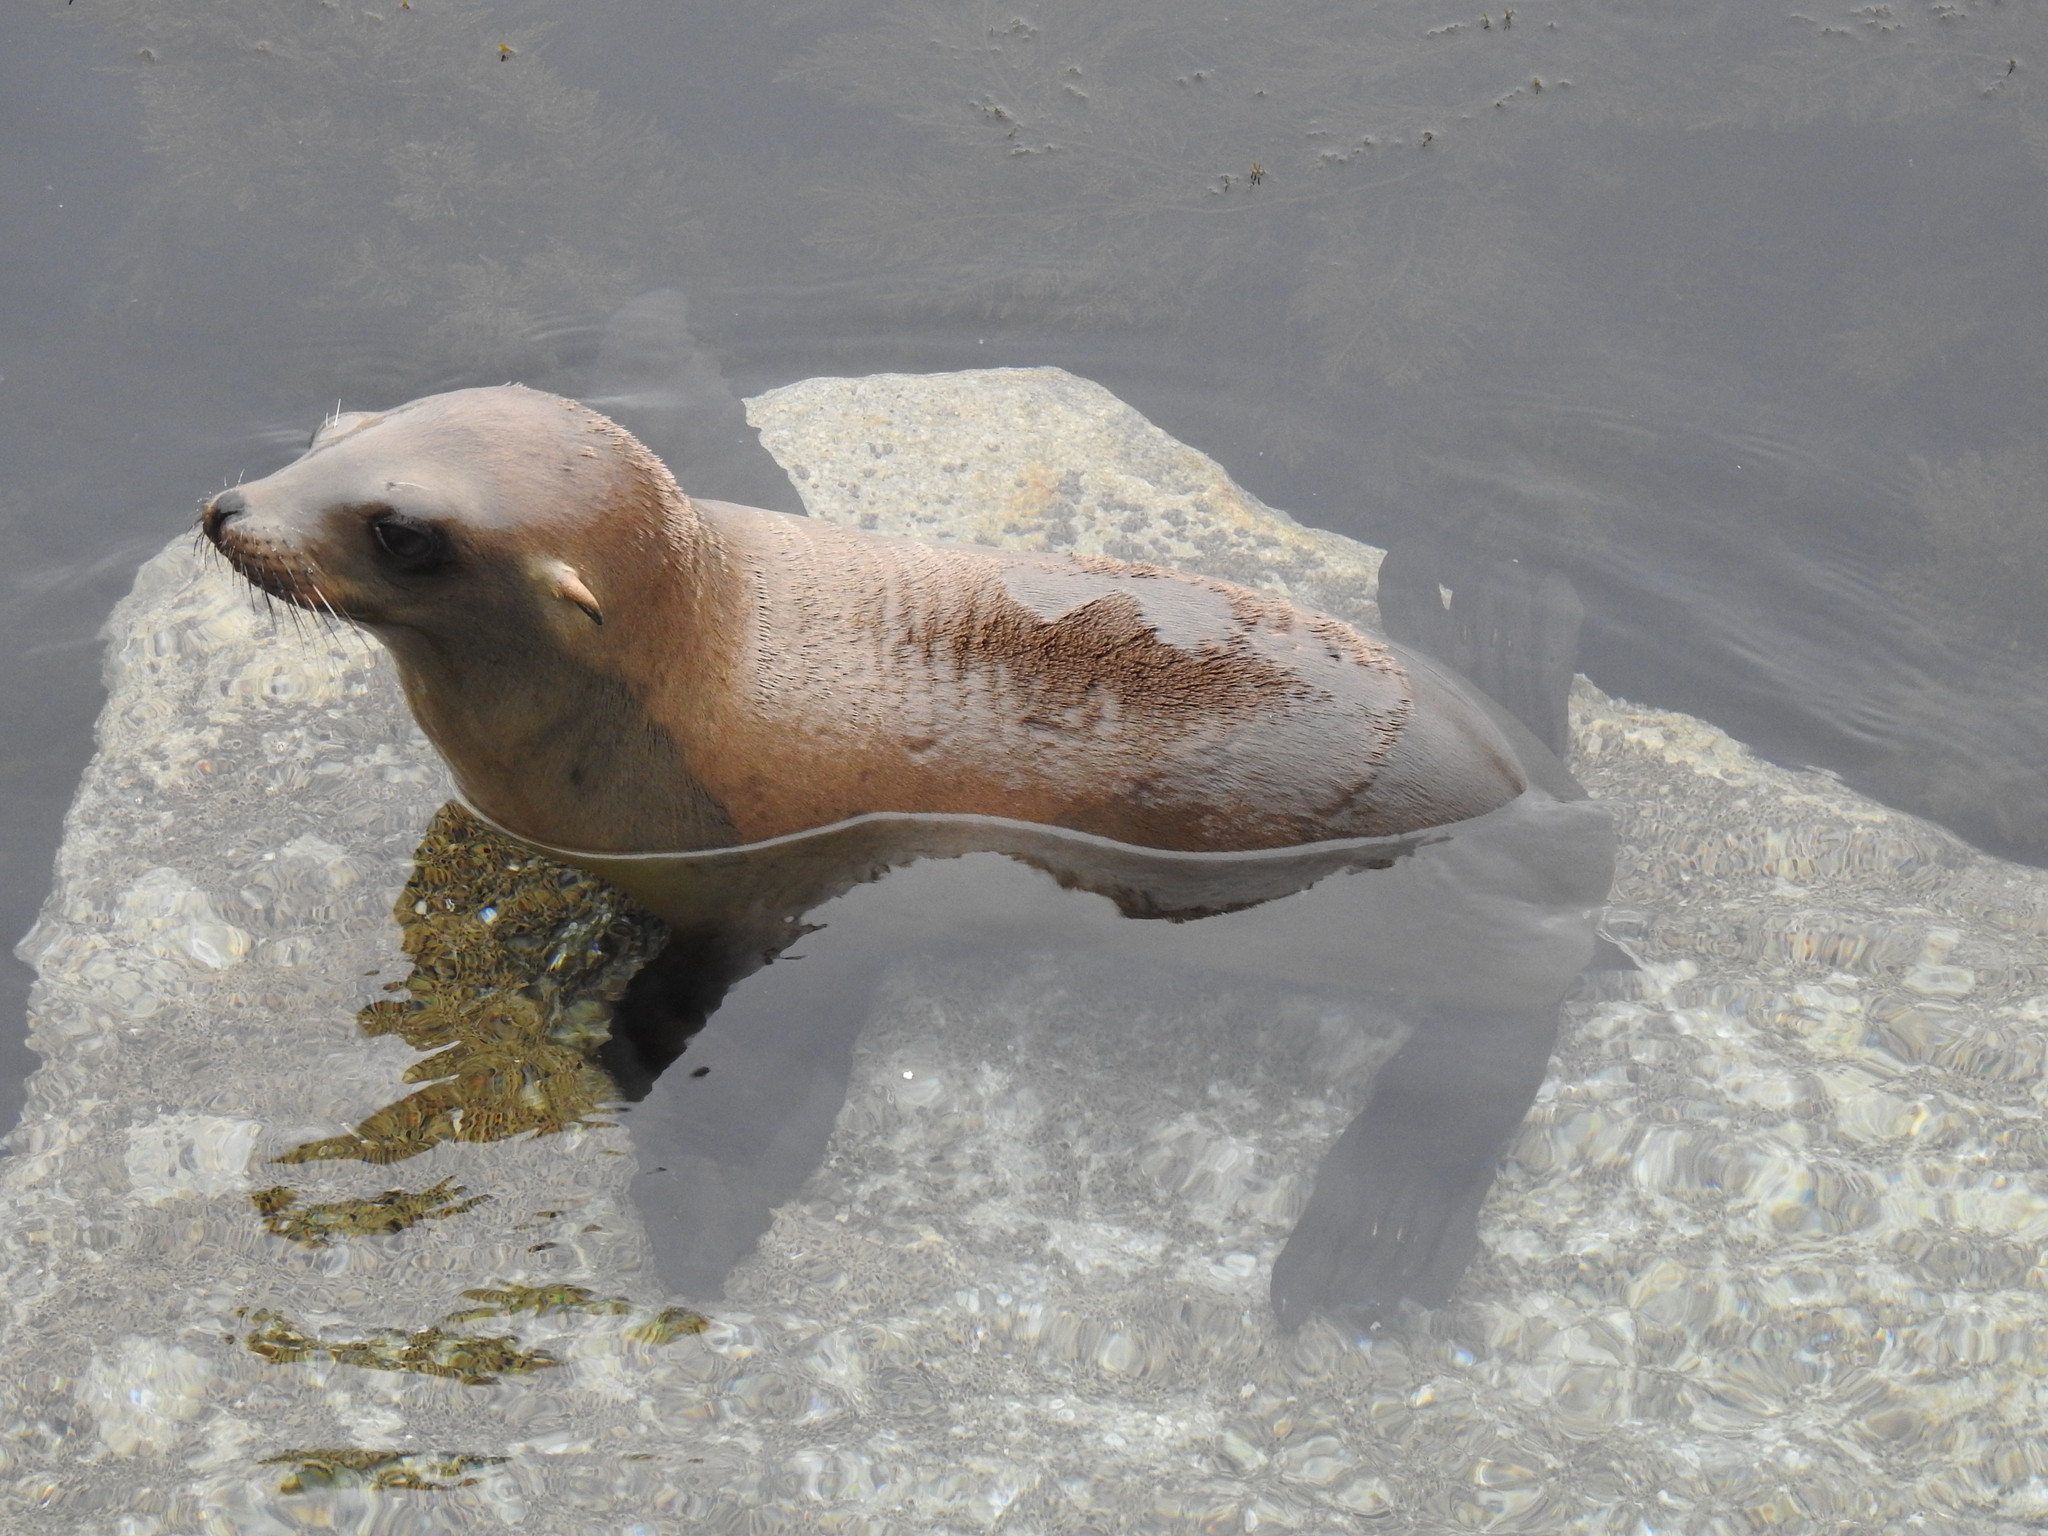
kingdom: Animalia
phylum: Chordata
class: Mammalia
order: Carnivora
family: Otariidae
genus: Zalophus
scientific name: Zalophus californianus
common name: California sea lion
